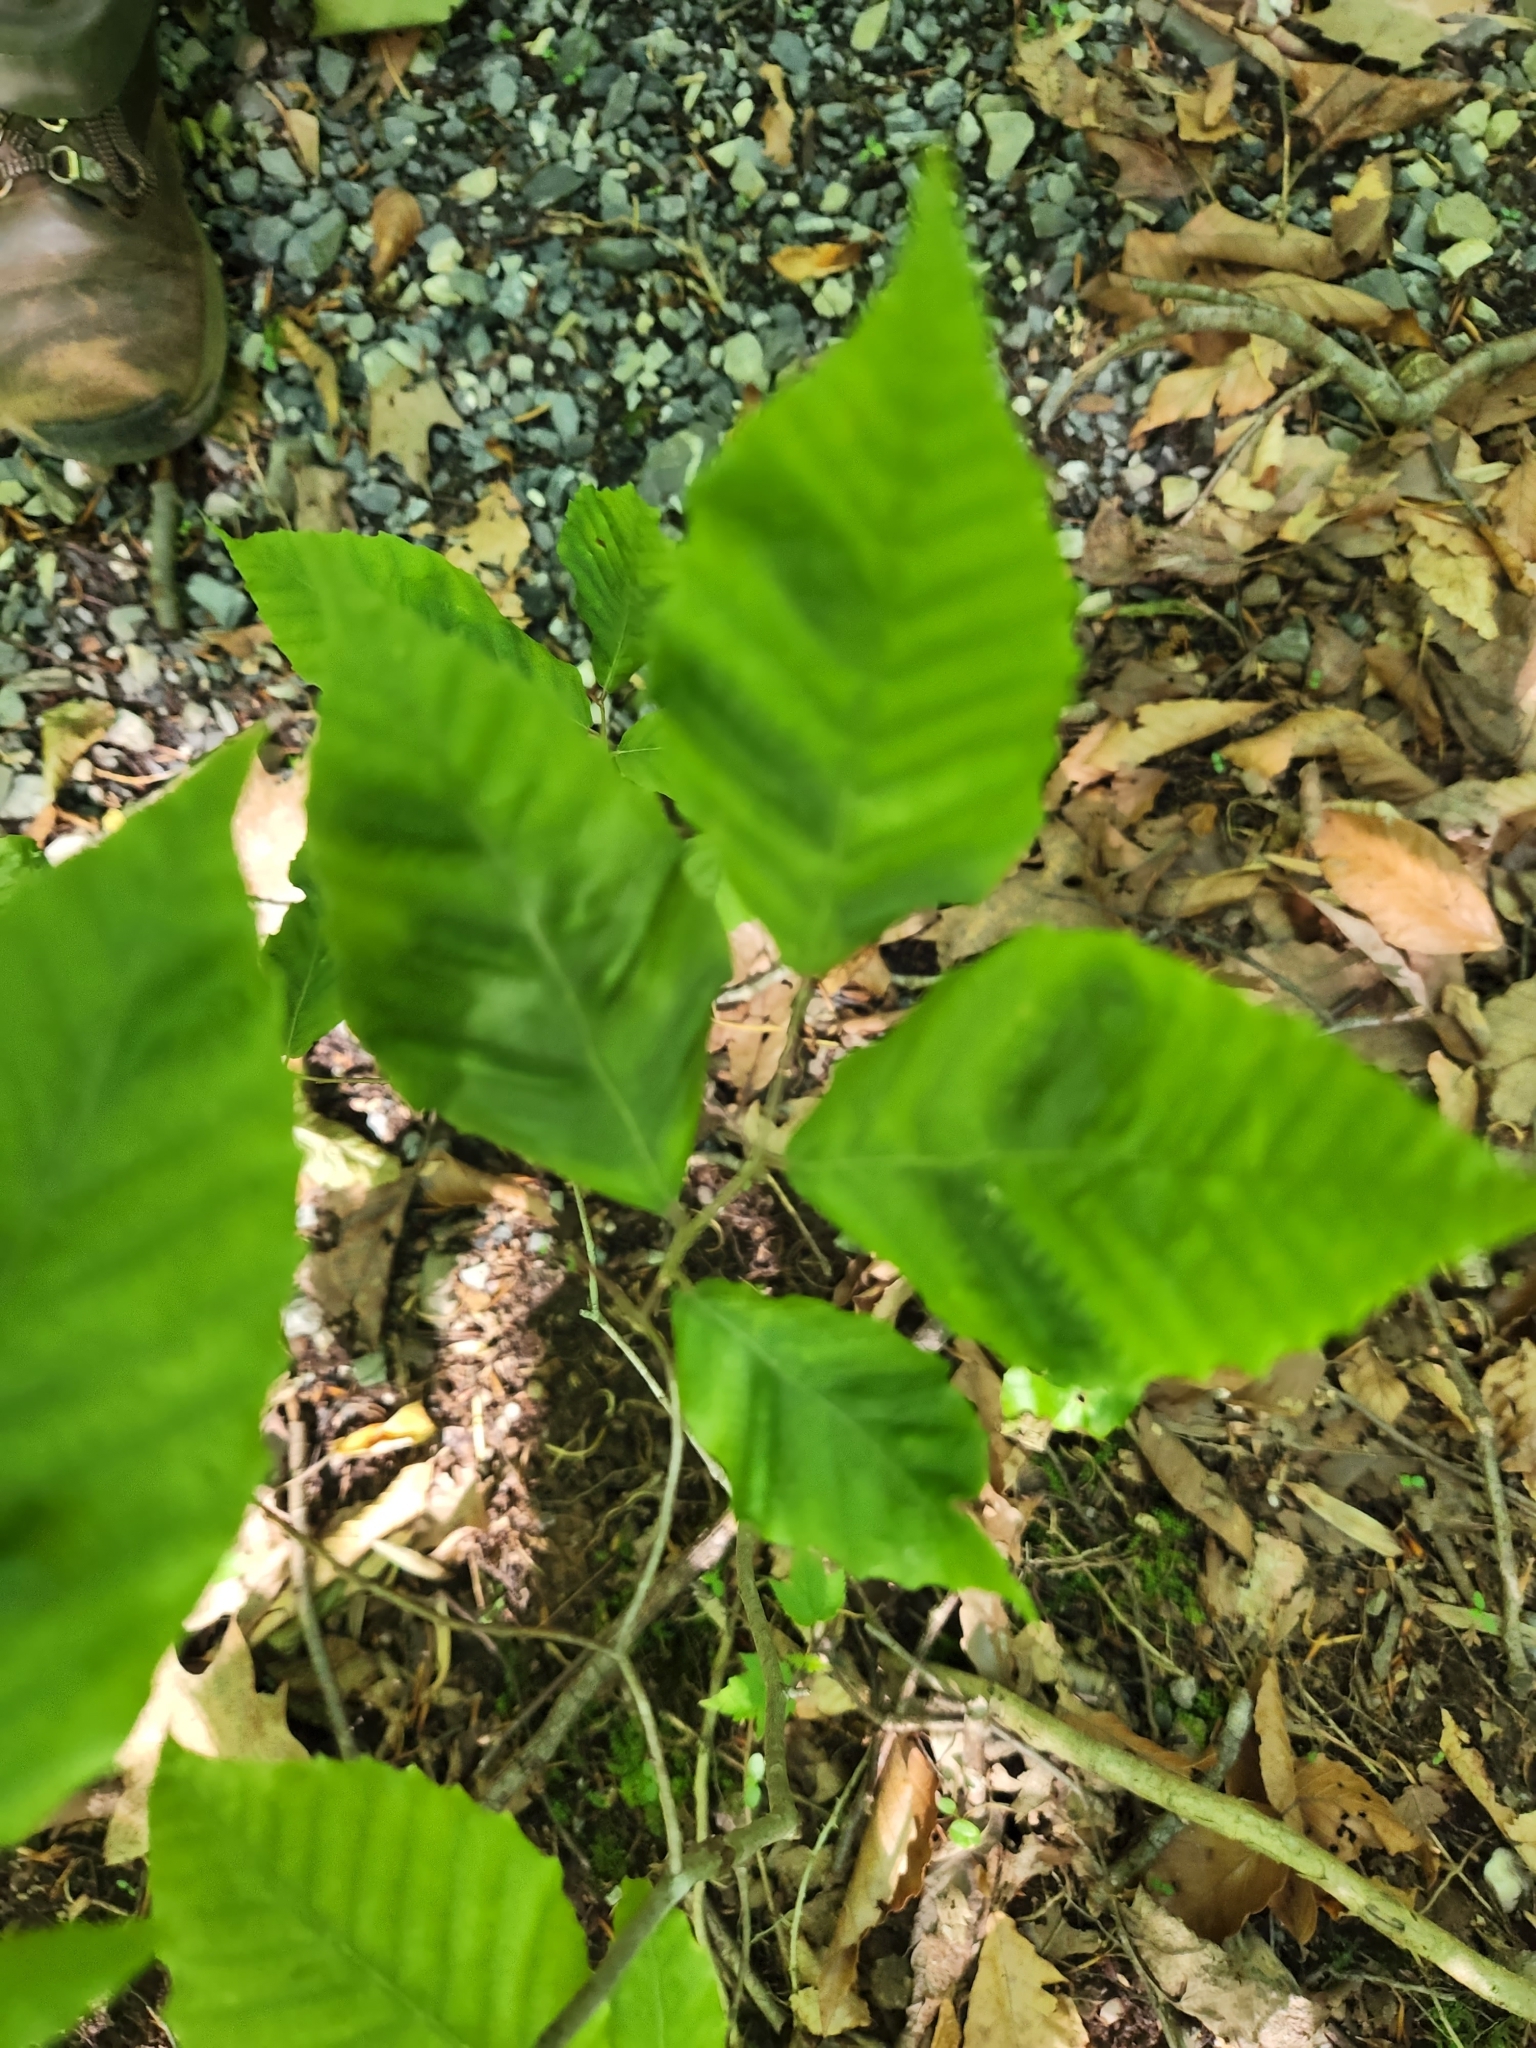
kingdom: Animalia
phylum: Nematoda
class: Chromadorea
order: Rhabditida
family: Anguinidae
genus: Litylenchus
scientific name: Litylenchus crenatae
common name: Beech leaf disease
